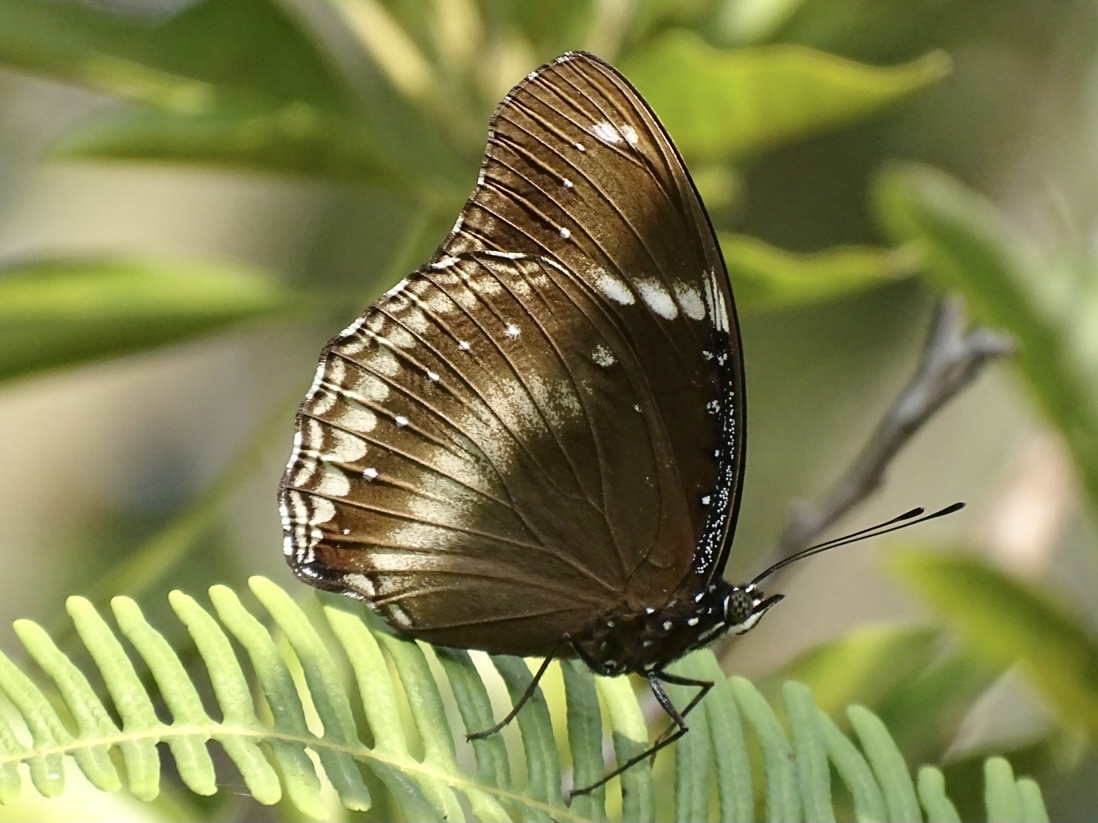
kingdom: Animalia
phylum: Arthropoda
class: Insecta
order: Lepidoptera
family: Nymphalidae
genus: Hypolimnas
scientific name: Hypolimnas bolina
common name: Great eggfly
